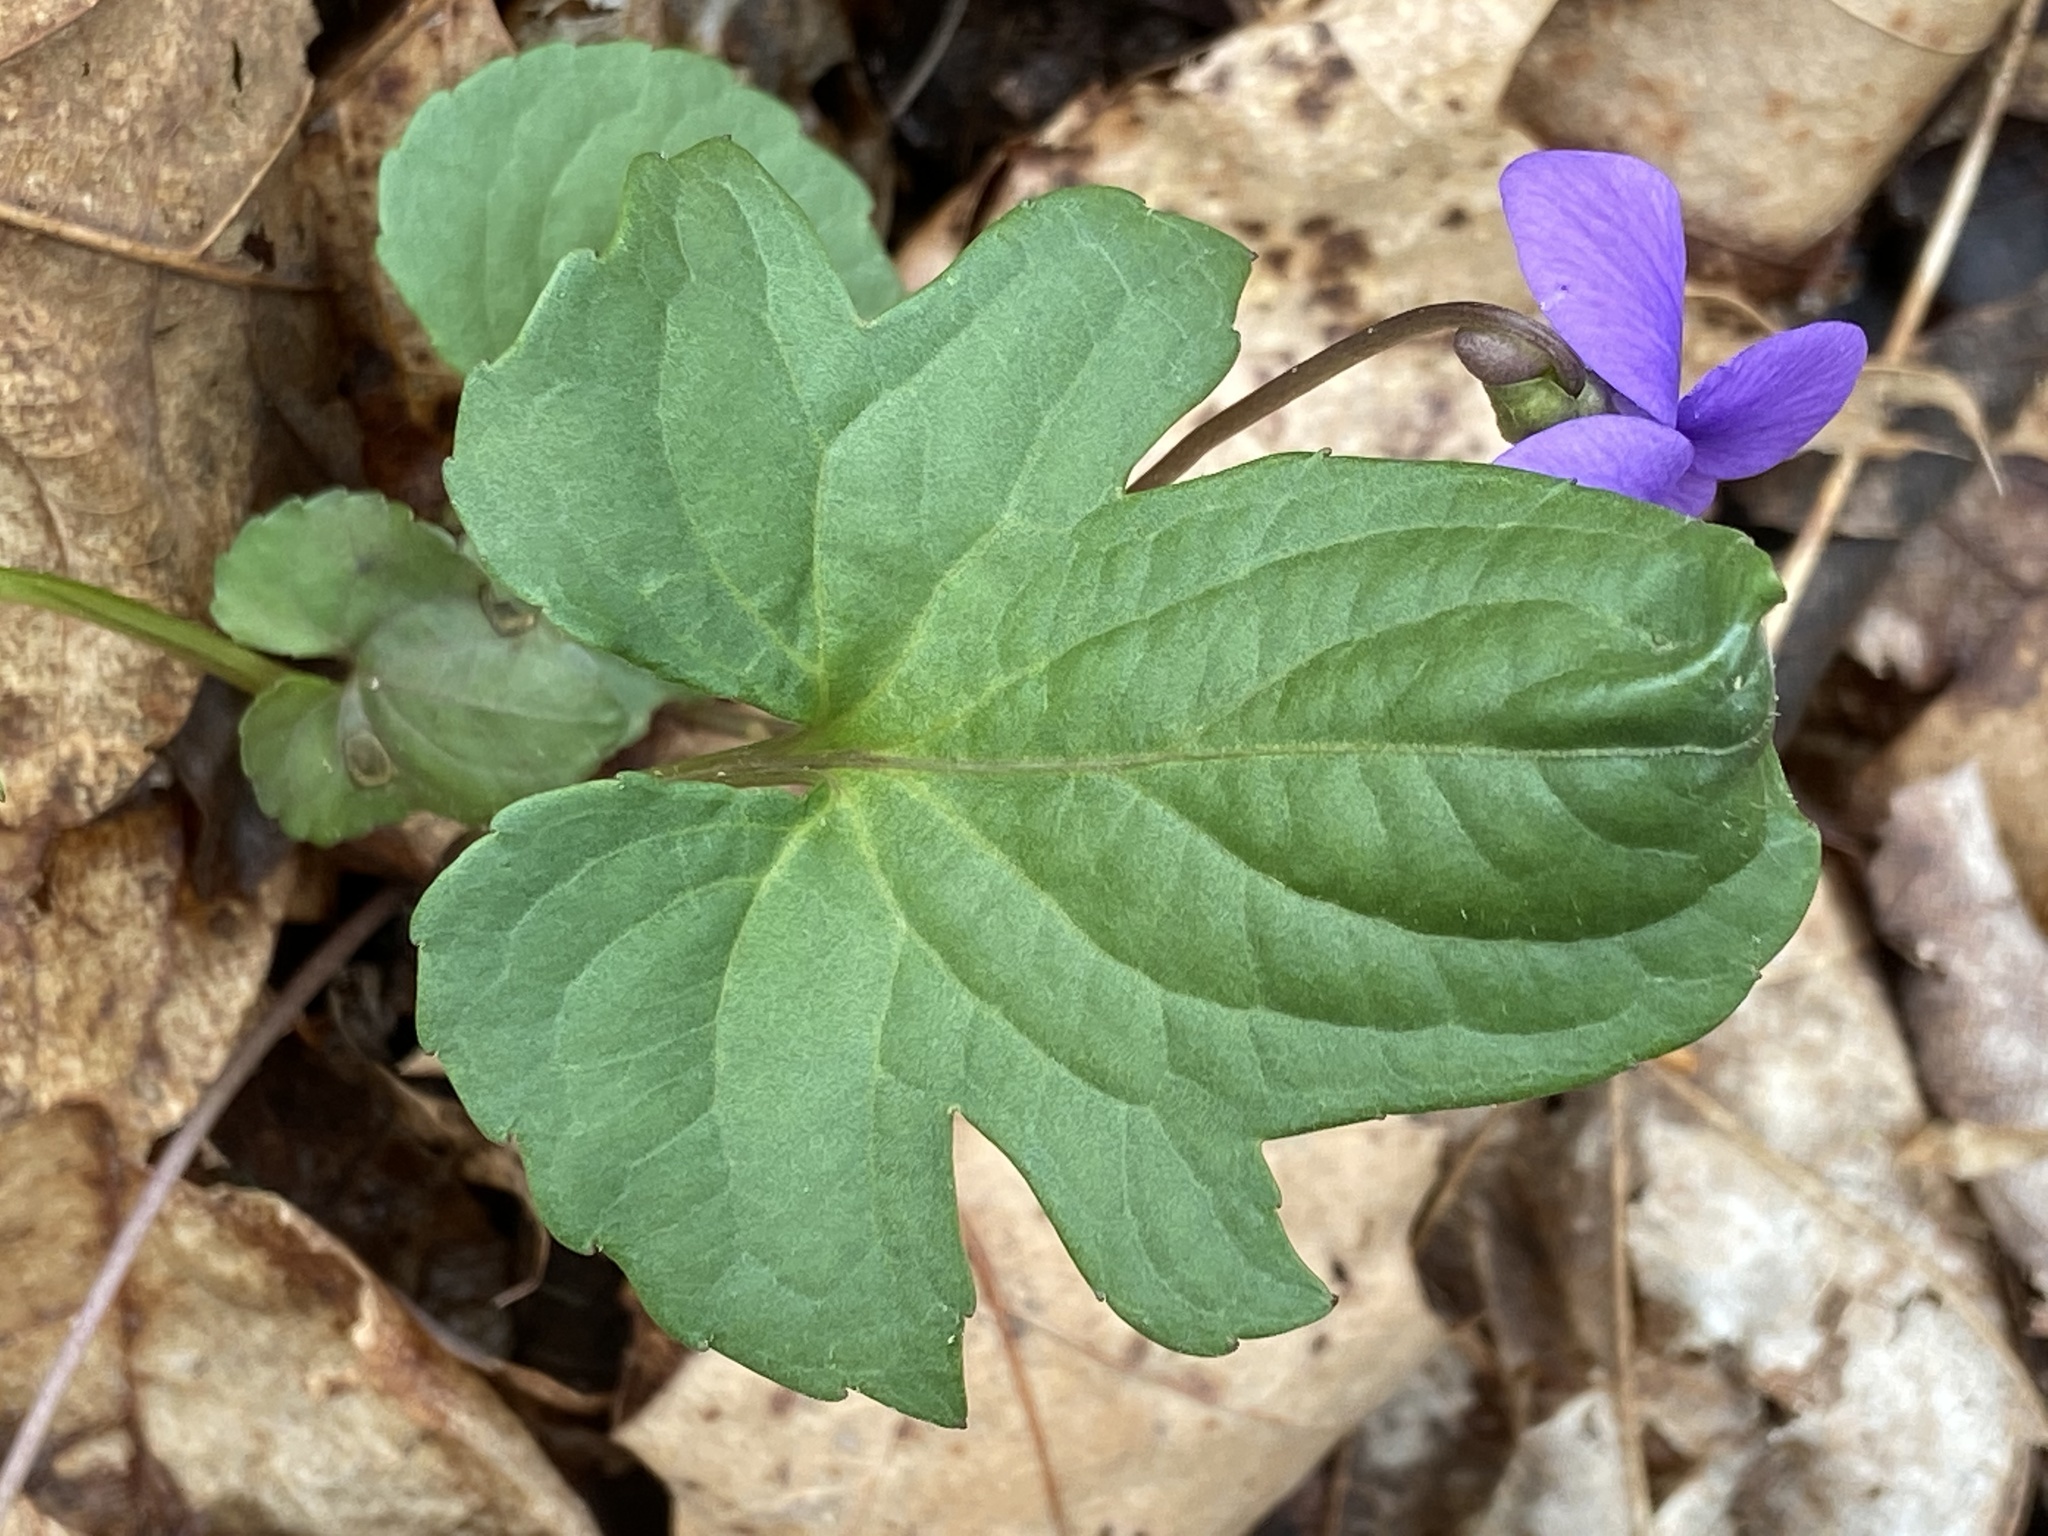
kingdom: Plantae
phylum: Tracheophyta
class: Magnoliopsida
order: Malpighiales
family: Violaceae
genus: Viola
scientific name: Viola palmata
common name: Early blue violet
